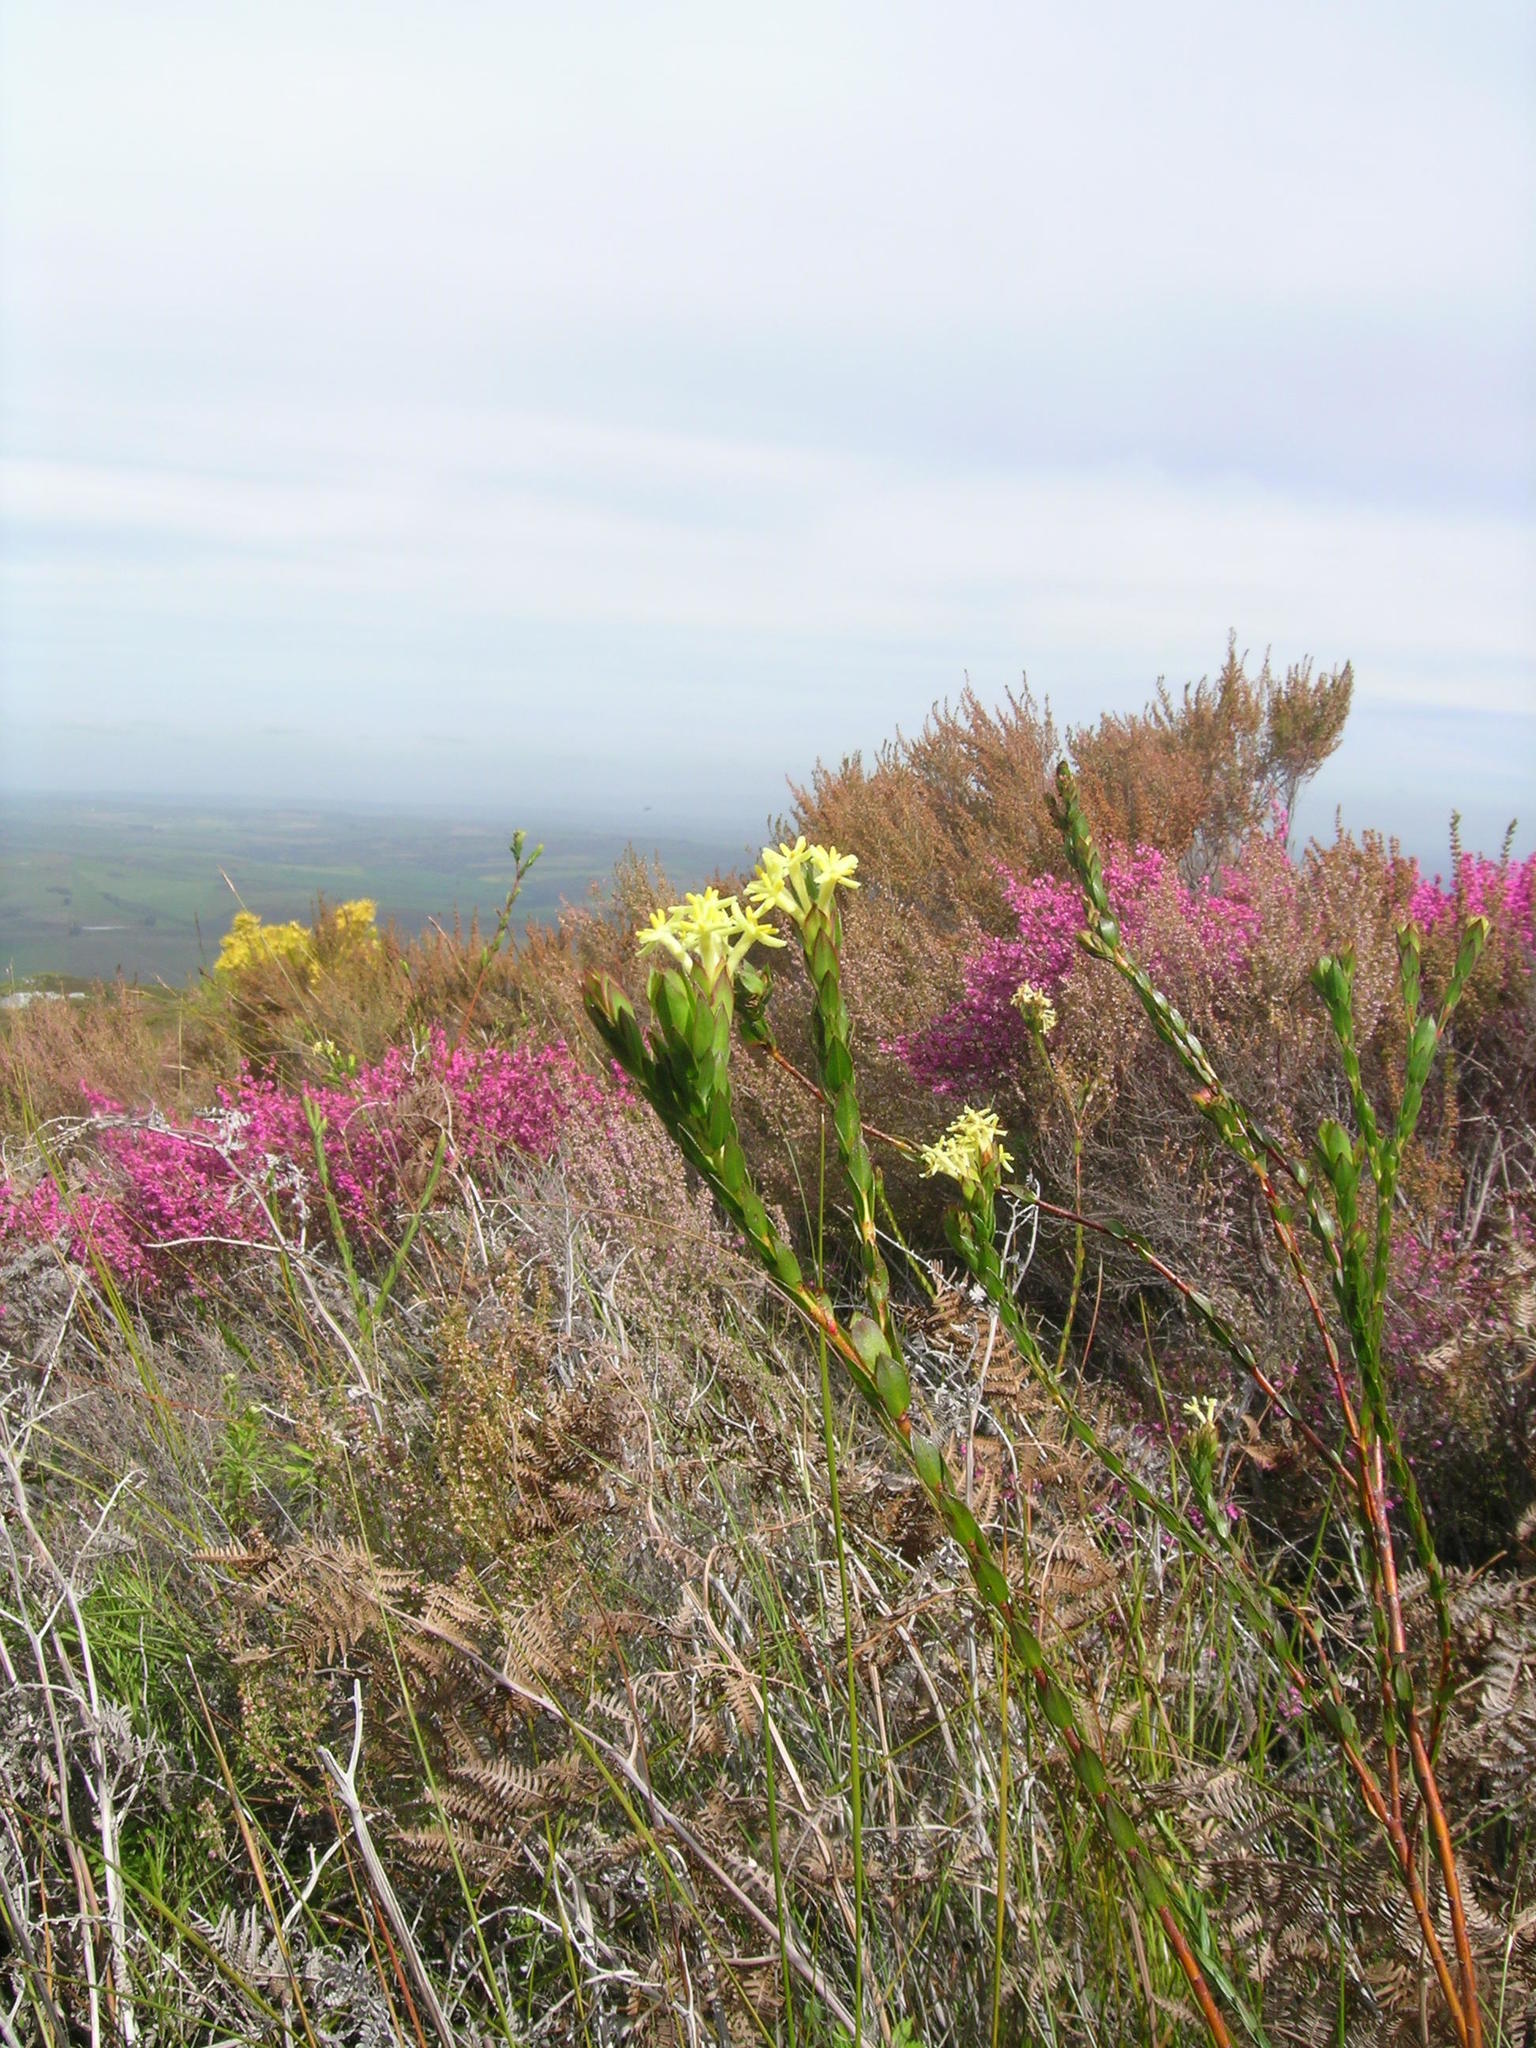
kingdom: Plantae
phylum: Tracheophyta
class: Magnoliopsida
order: Malvales
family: Thymelaeaceae
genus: Gnidia
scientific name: Gnidia oppositifolia
